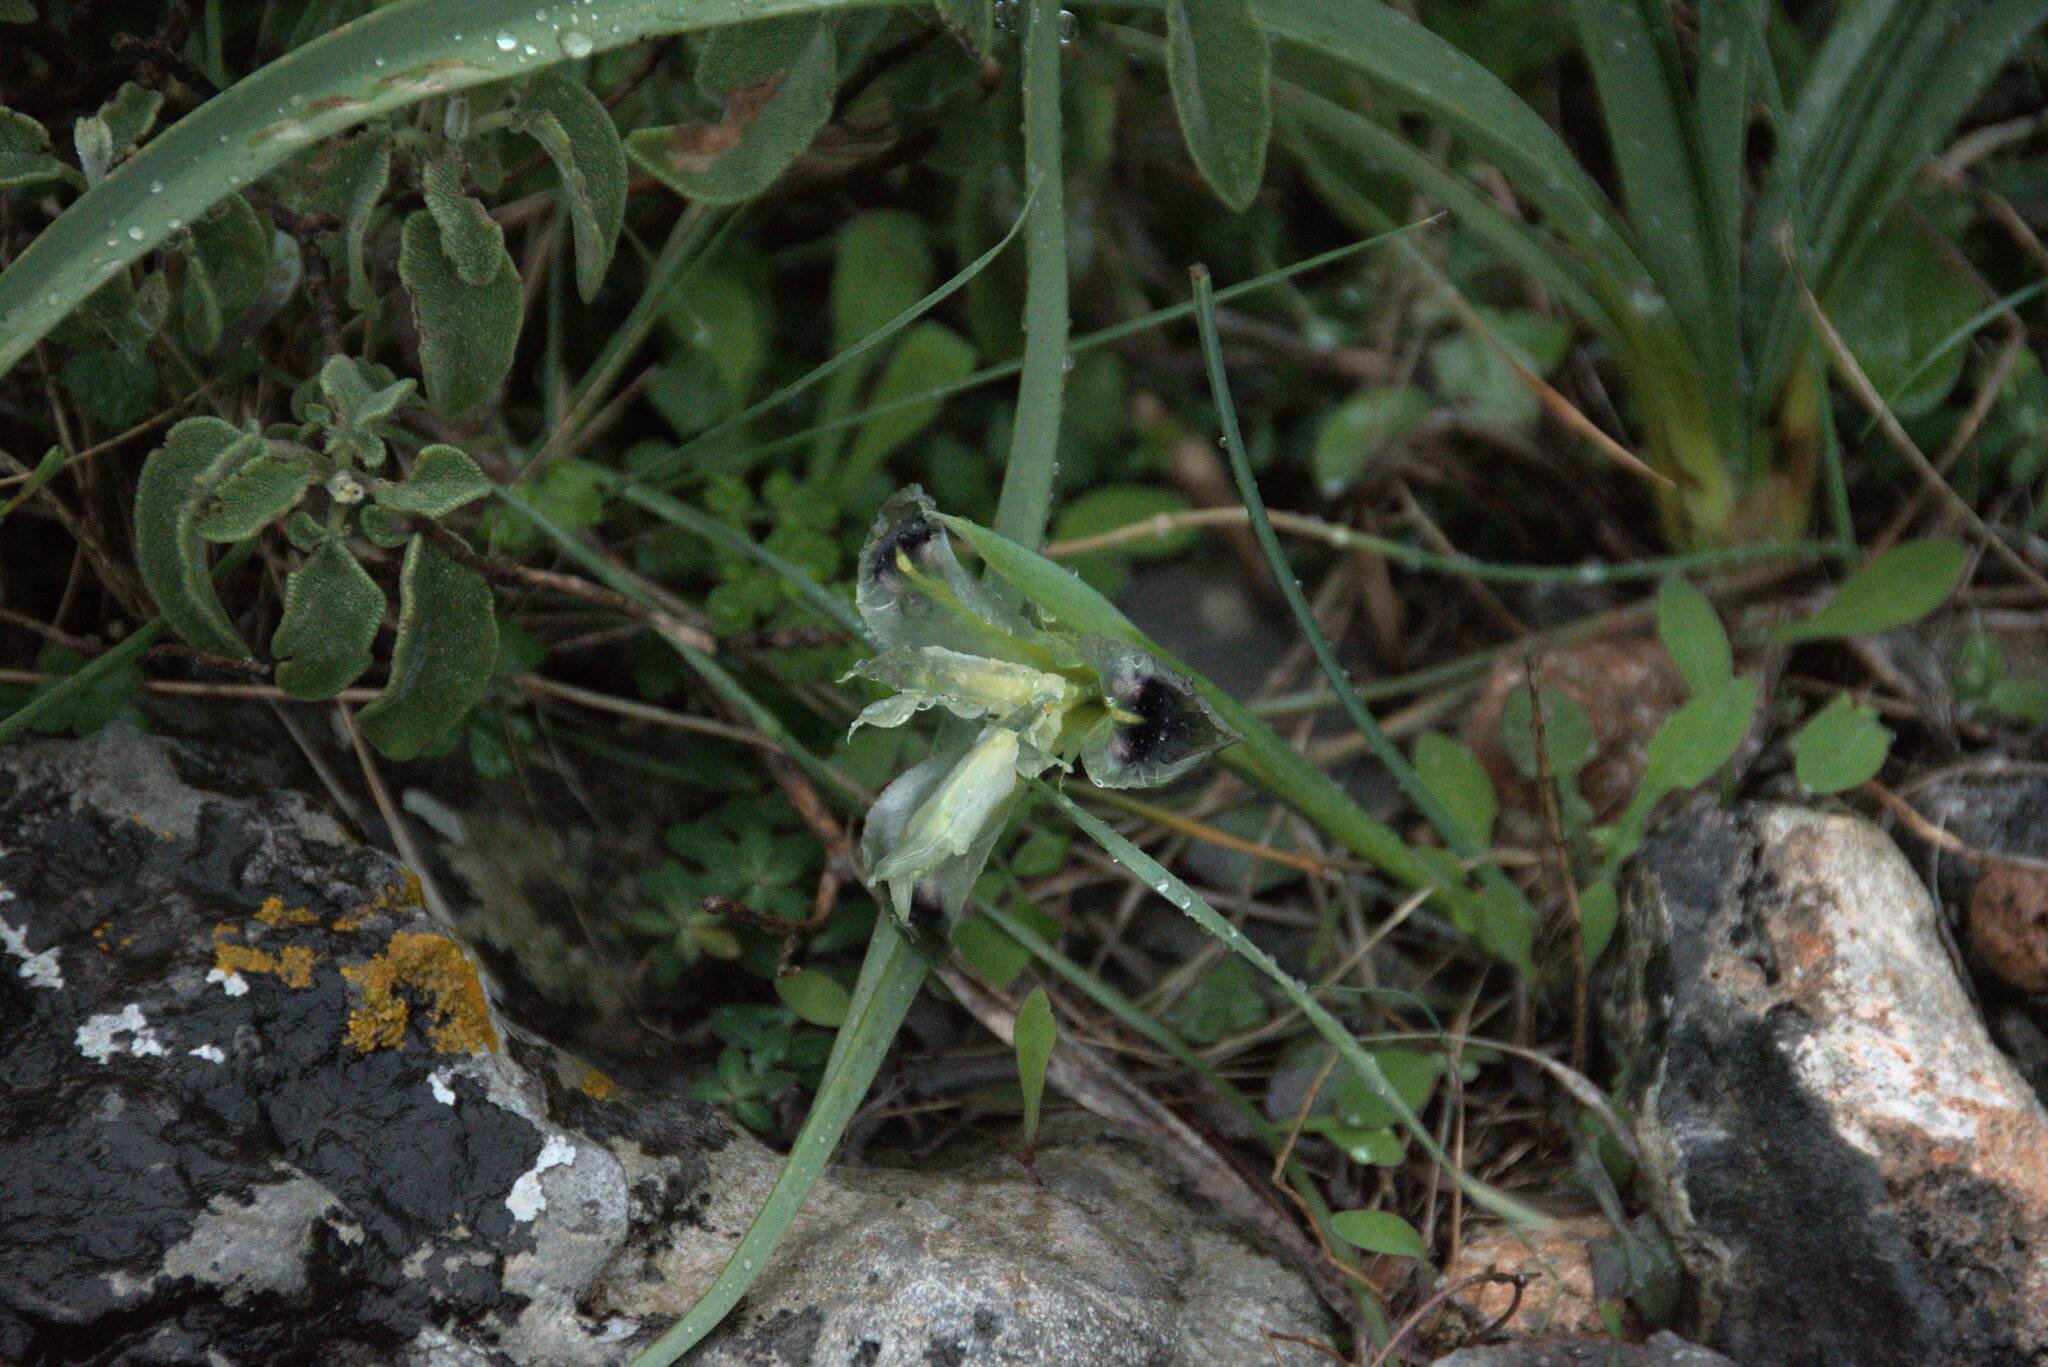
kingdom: Plantae
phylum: Tracheophyta
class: Liliopsida
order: Asparagales
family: Iridaceae
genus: Iris
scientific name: Iris tuberosa
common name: Snake's-head iris
